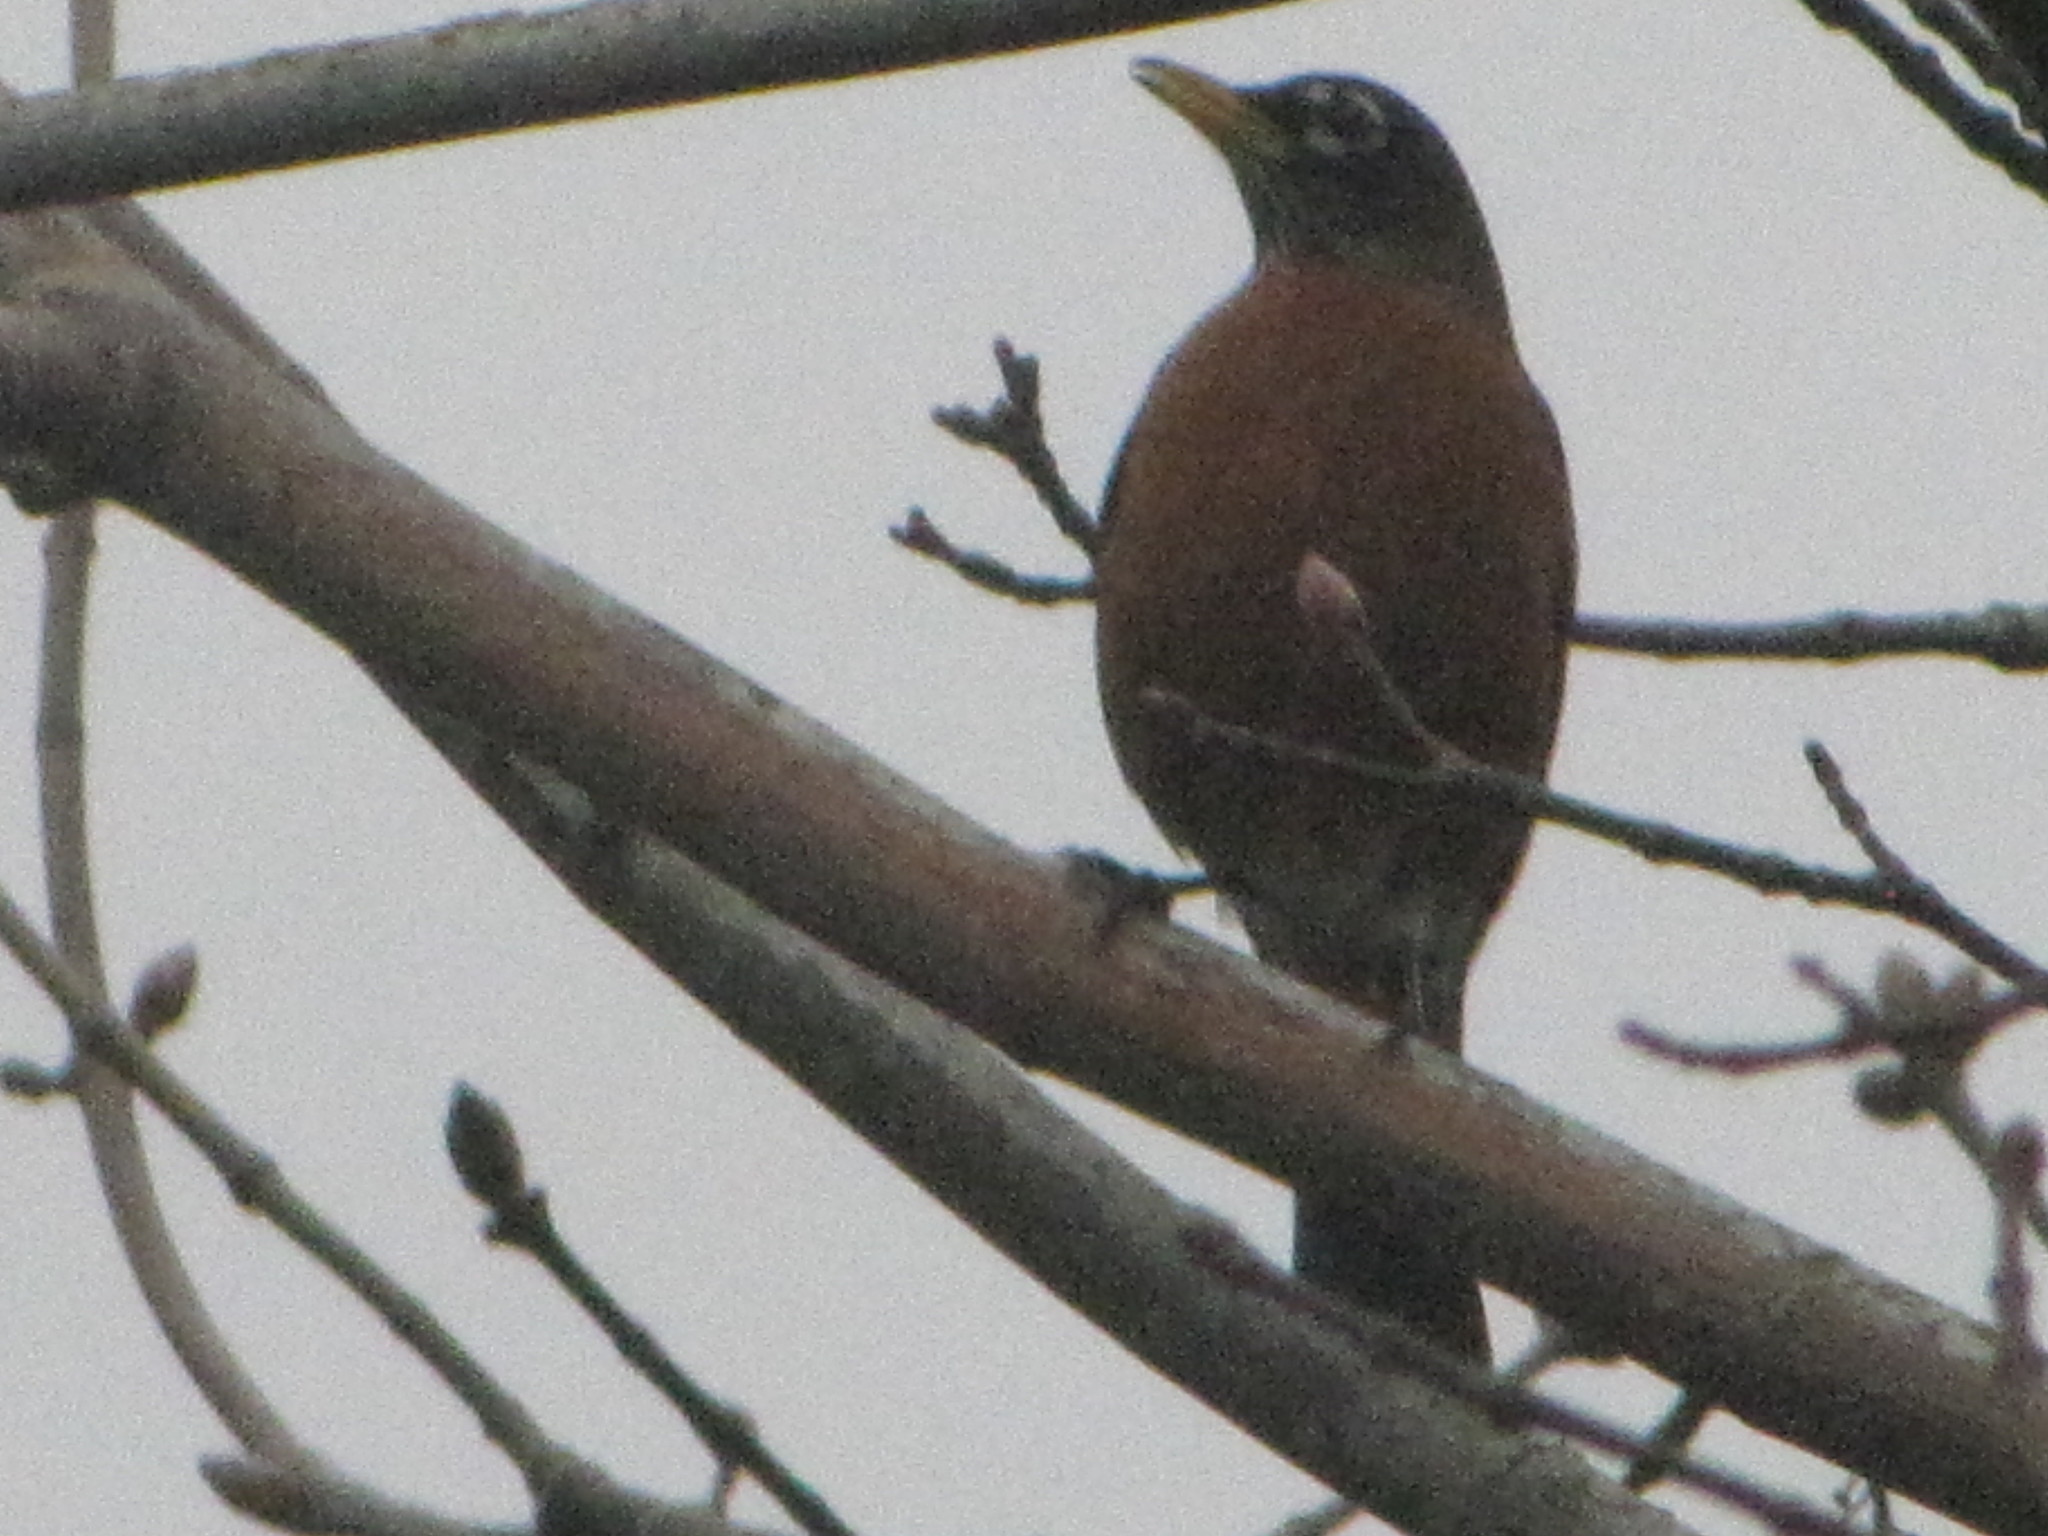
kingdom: Animalia
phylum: Chordata
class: Aves
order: Passeriformes
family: Turdidae
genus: Turdus
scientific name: Turdus migratorius
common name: American robin
